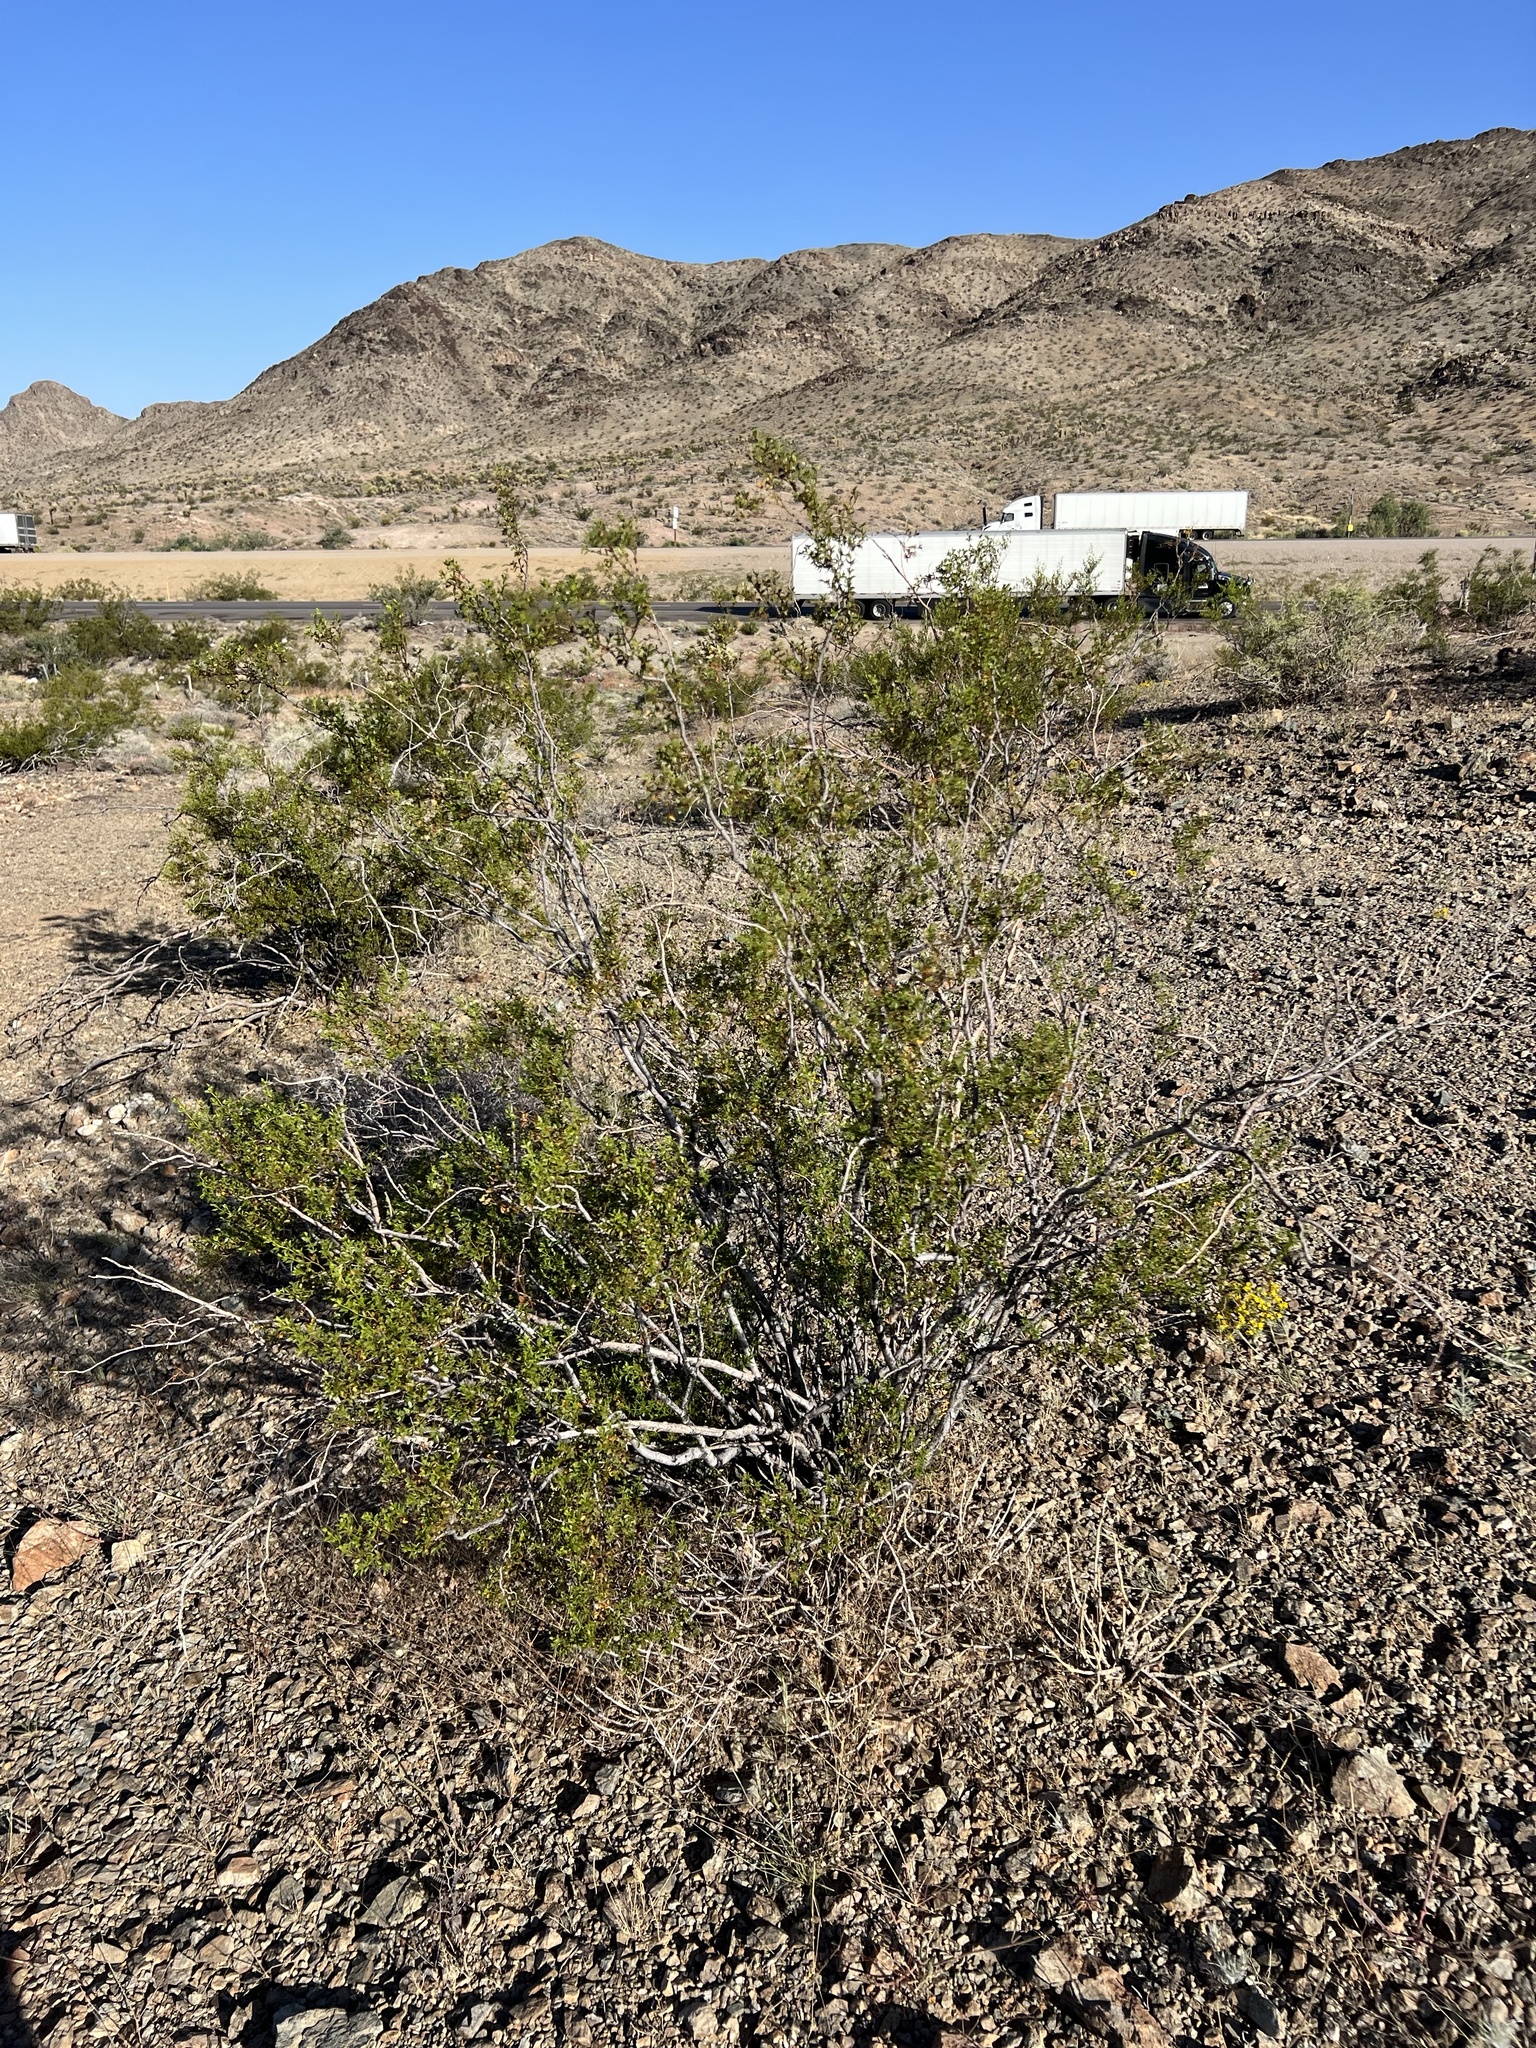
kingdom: Plantae
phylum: Tracheophyta
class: Magnoliopsida
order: Zygophyllales
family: Zygophyllaceae
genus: Larrea
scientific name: Larrea tridentata
